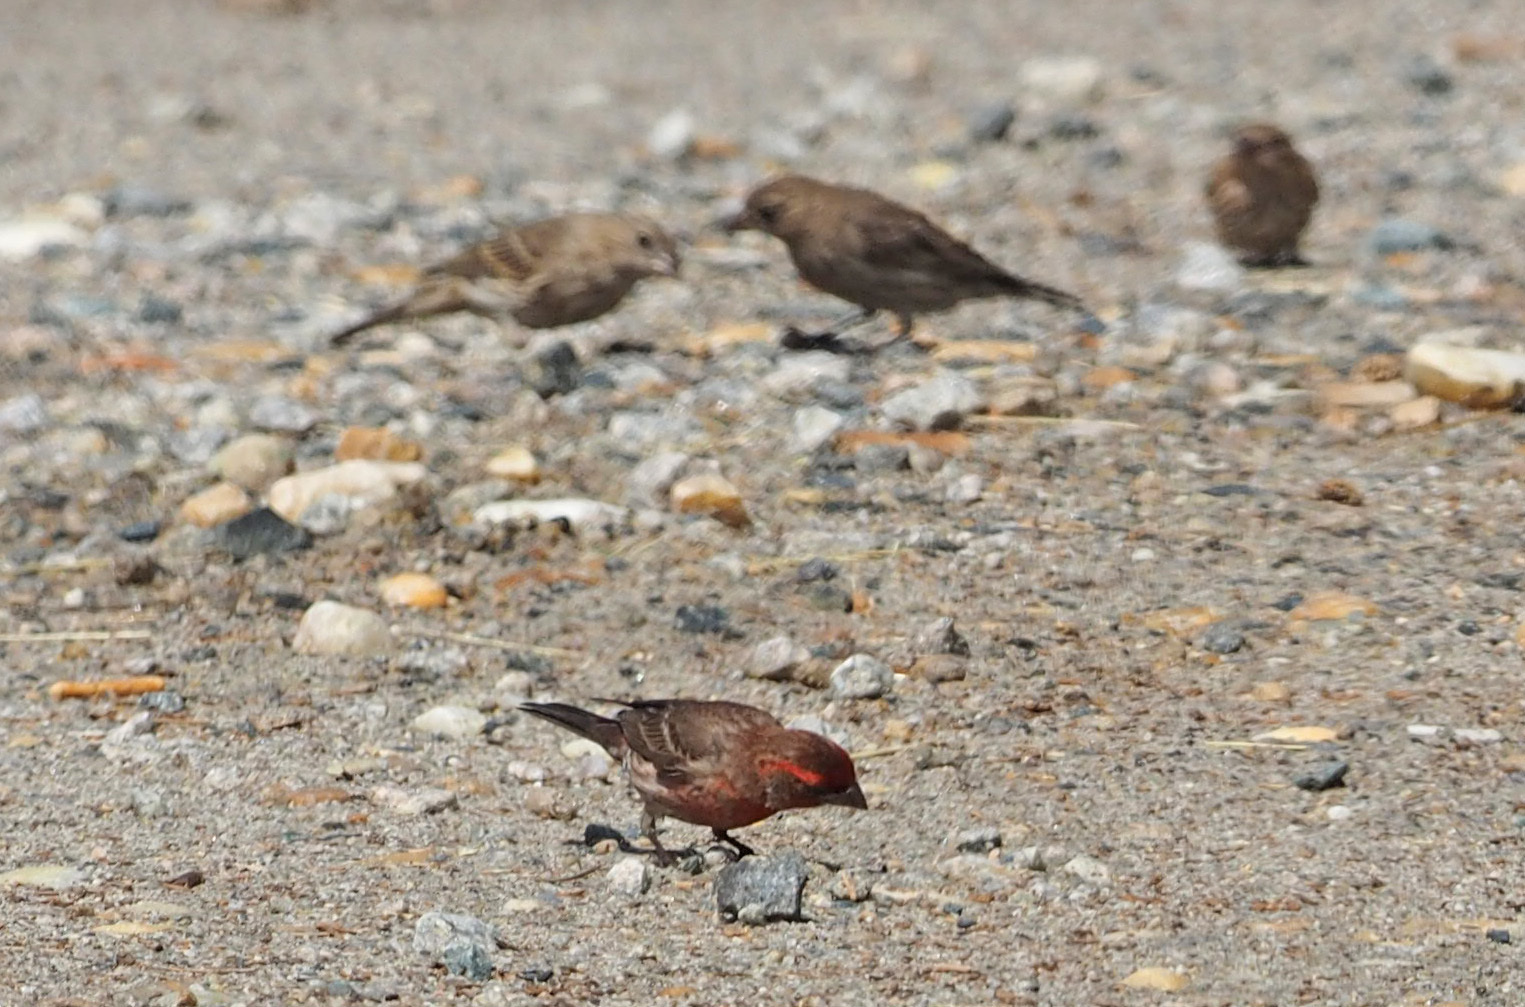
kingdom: Animalia
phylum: Chordata
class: Aves
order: Passeriformes
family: Fringillidae
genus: Haemorhous
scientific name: Haemorhous mexicanus
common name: House finch
